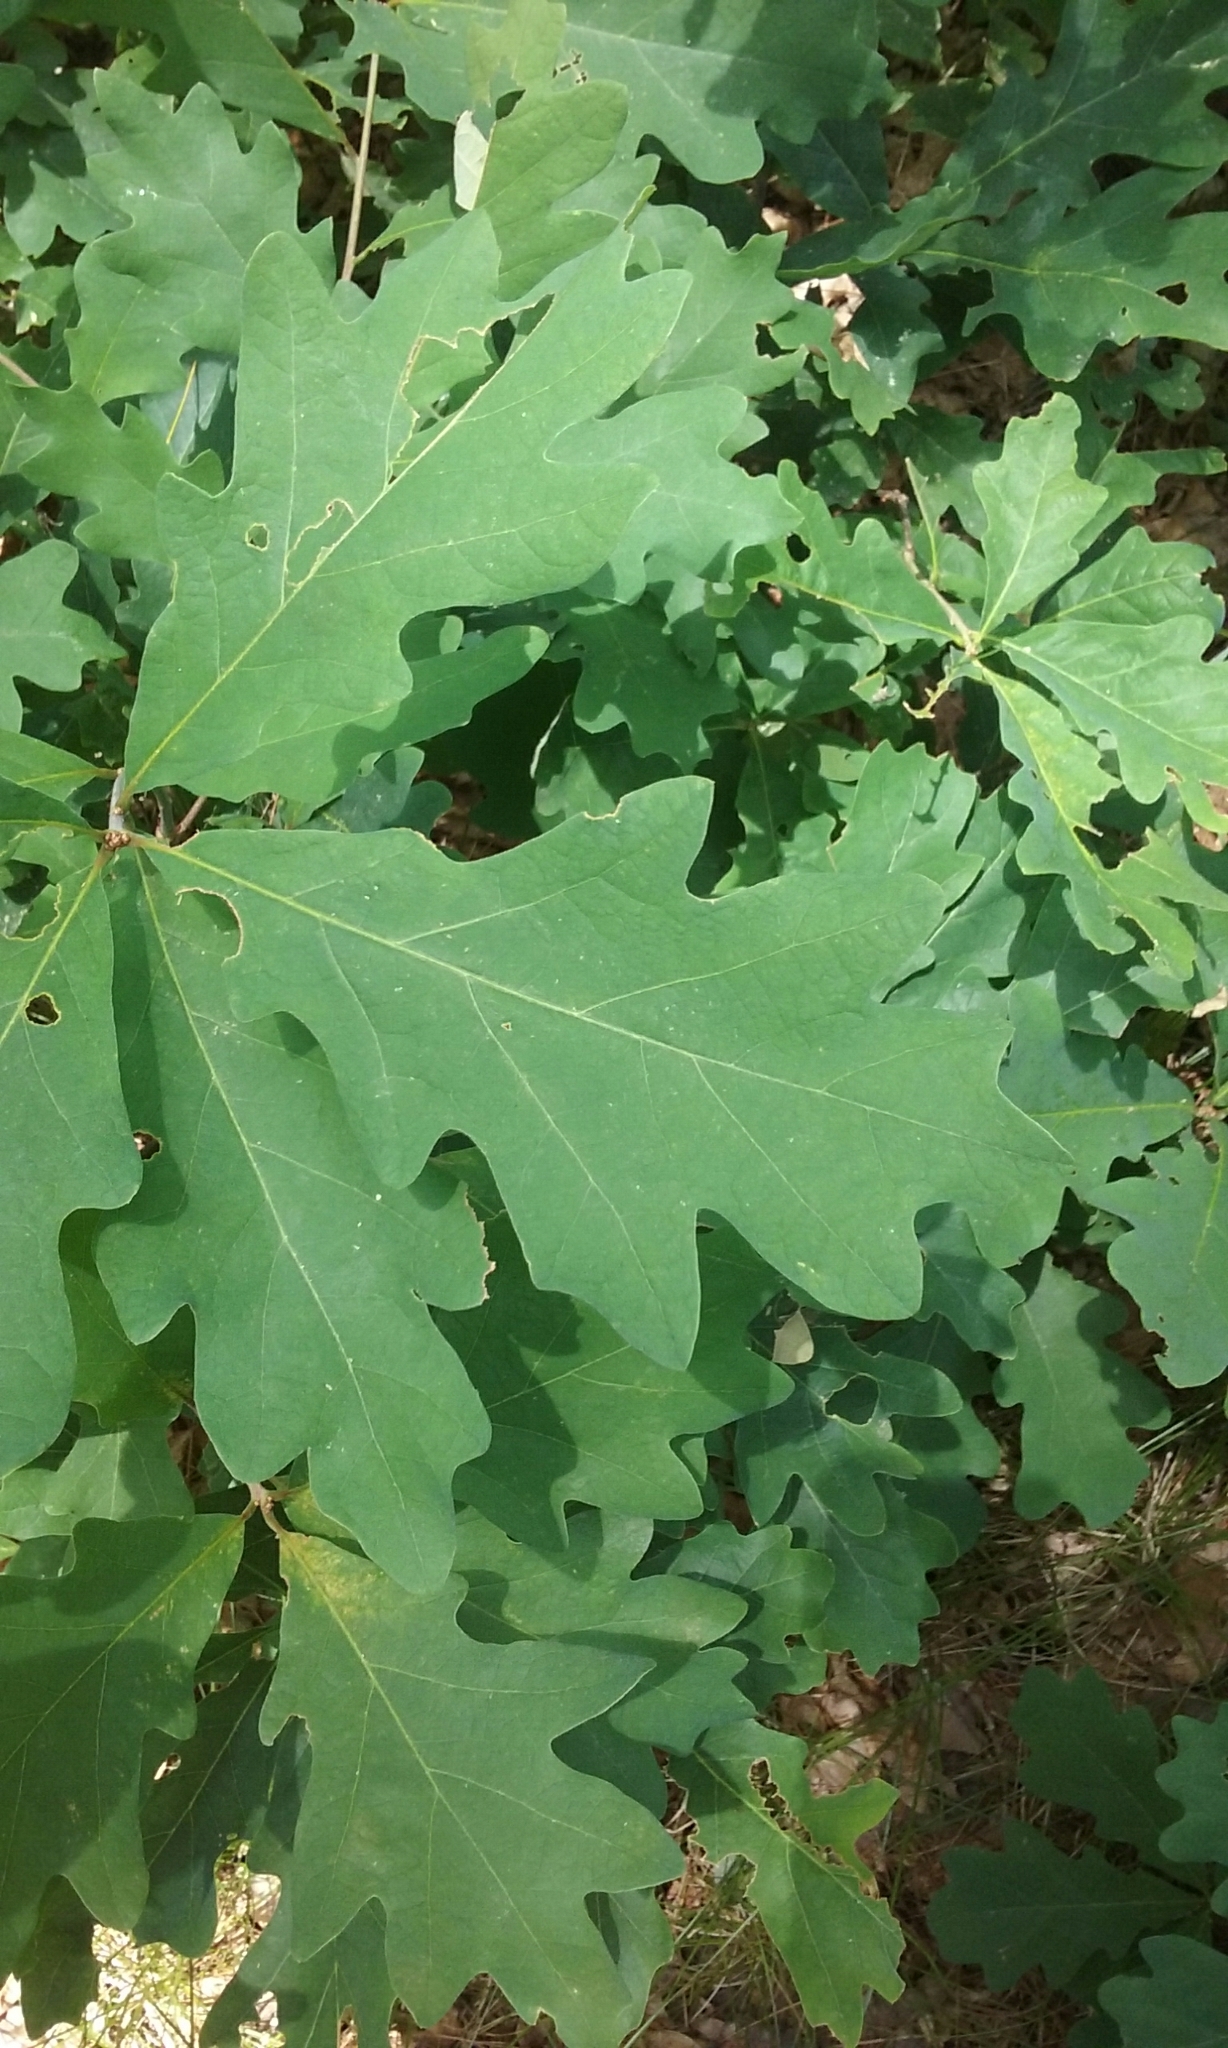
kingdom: Plantae
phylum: Tracheophyta
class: Magnoliopsida
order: Fagales
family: Fagaceae
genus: Quercus
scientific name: Quercus alba
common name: White oak
